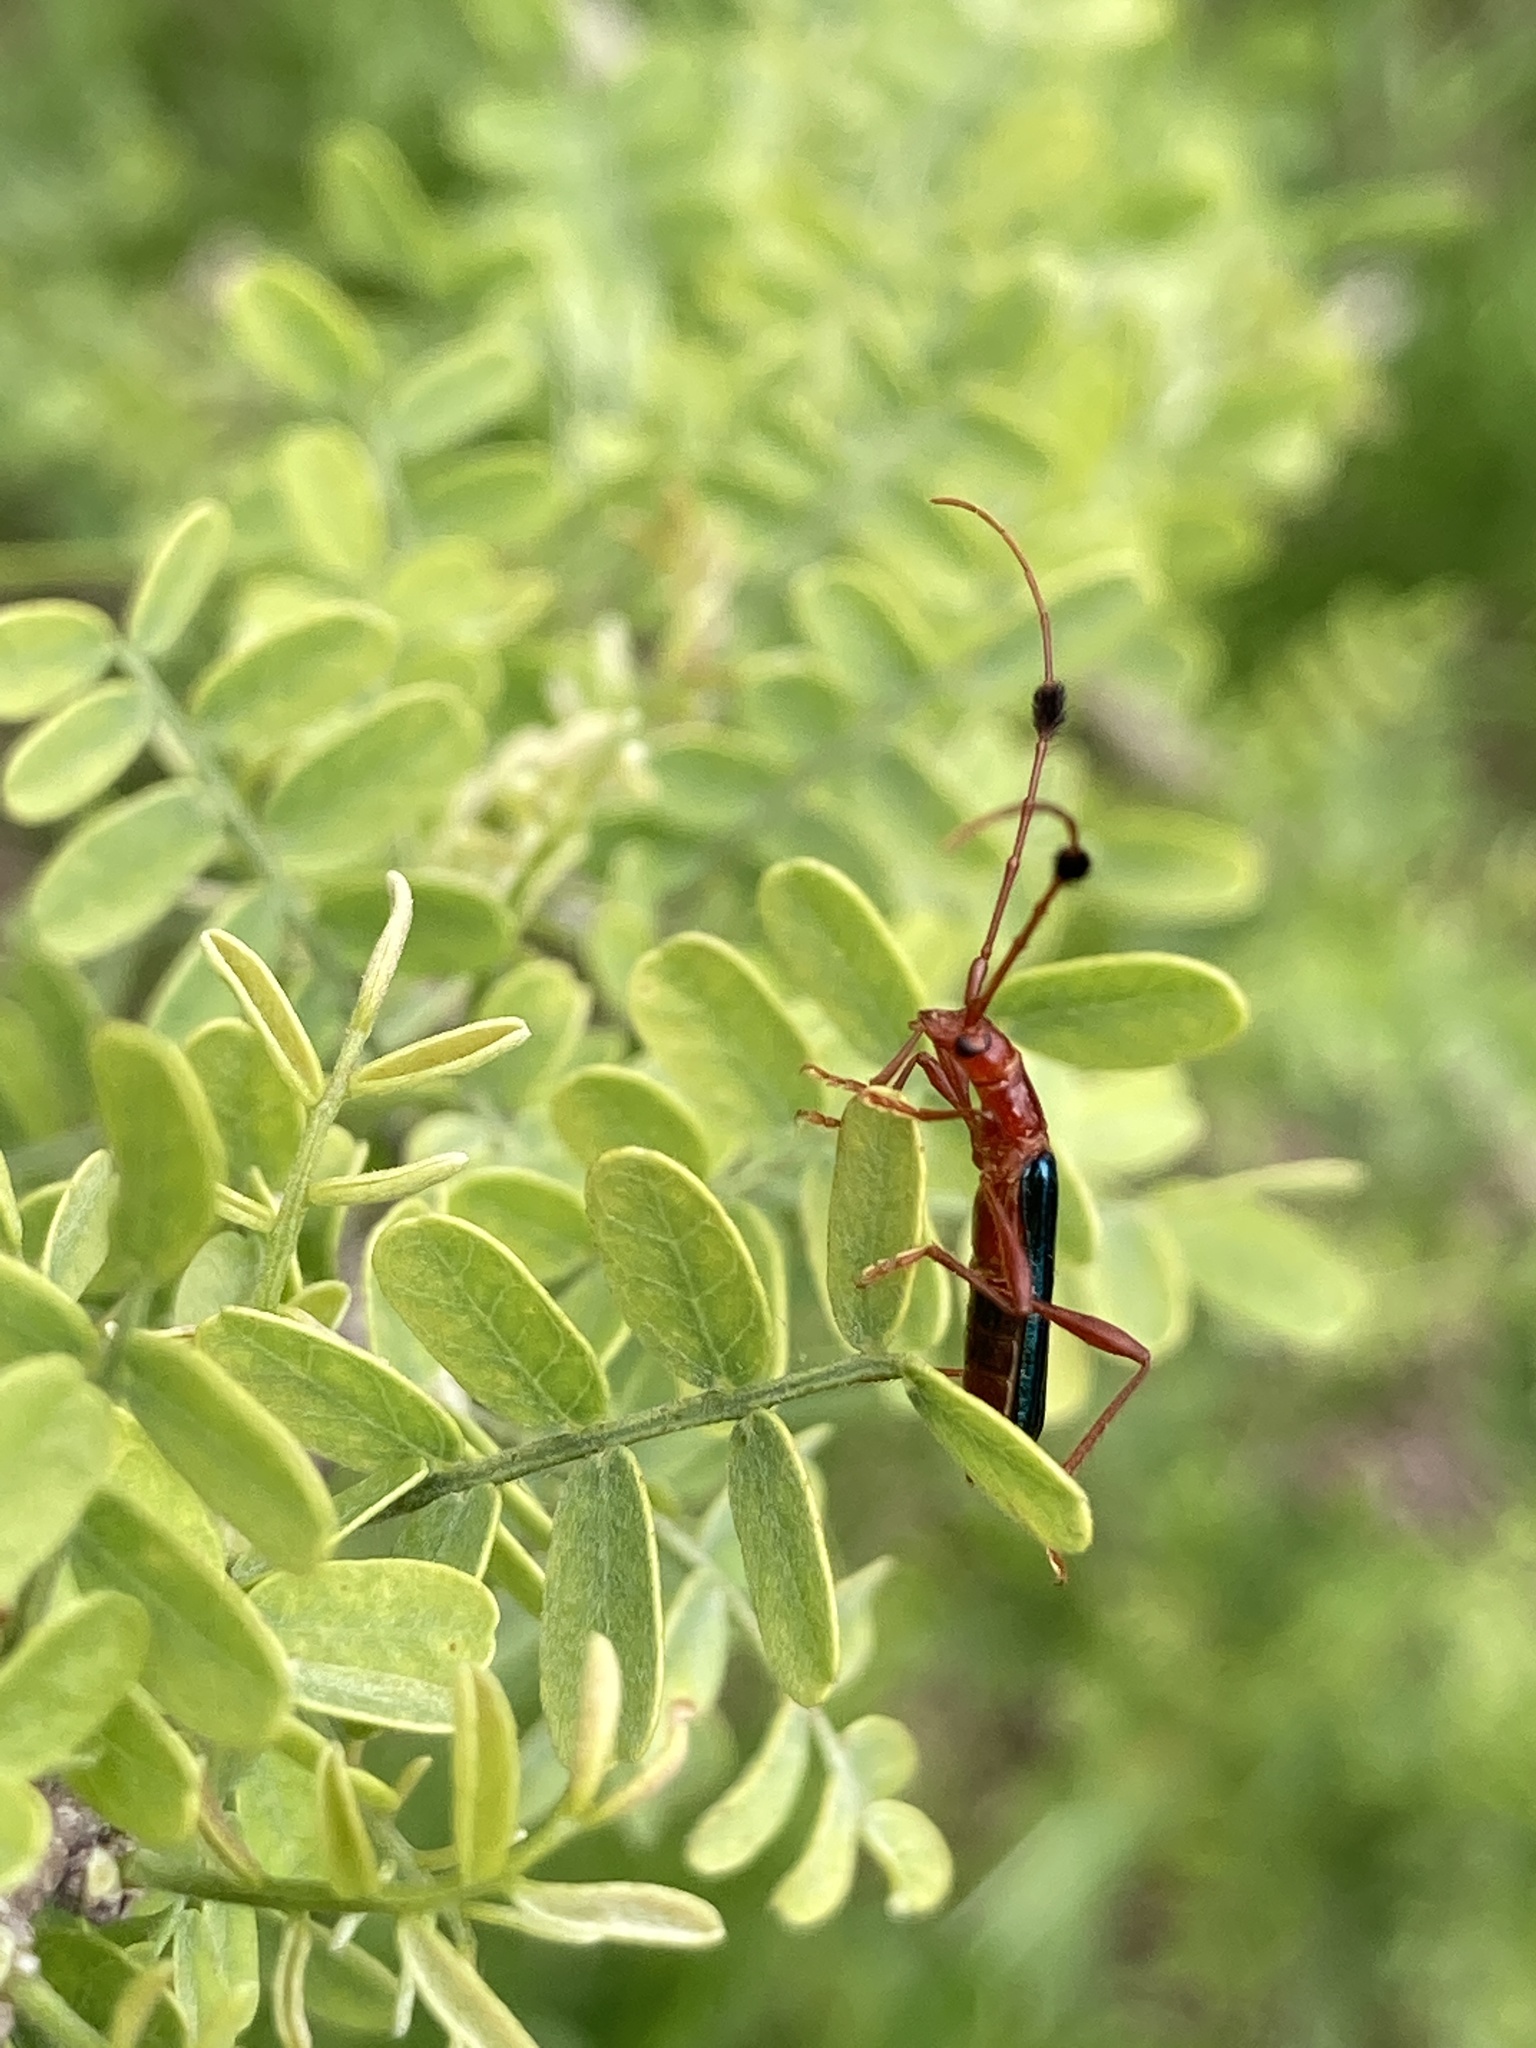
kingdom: Animalia
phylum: Arthropoda
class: Insecta
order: Coleoptera
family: Cerambycidae
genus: Paromoeocerus
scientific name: Paromoeocerus barbicornis
